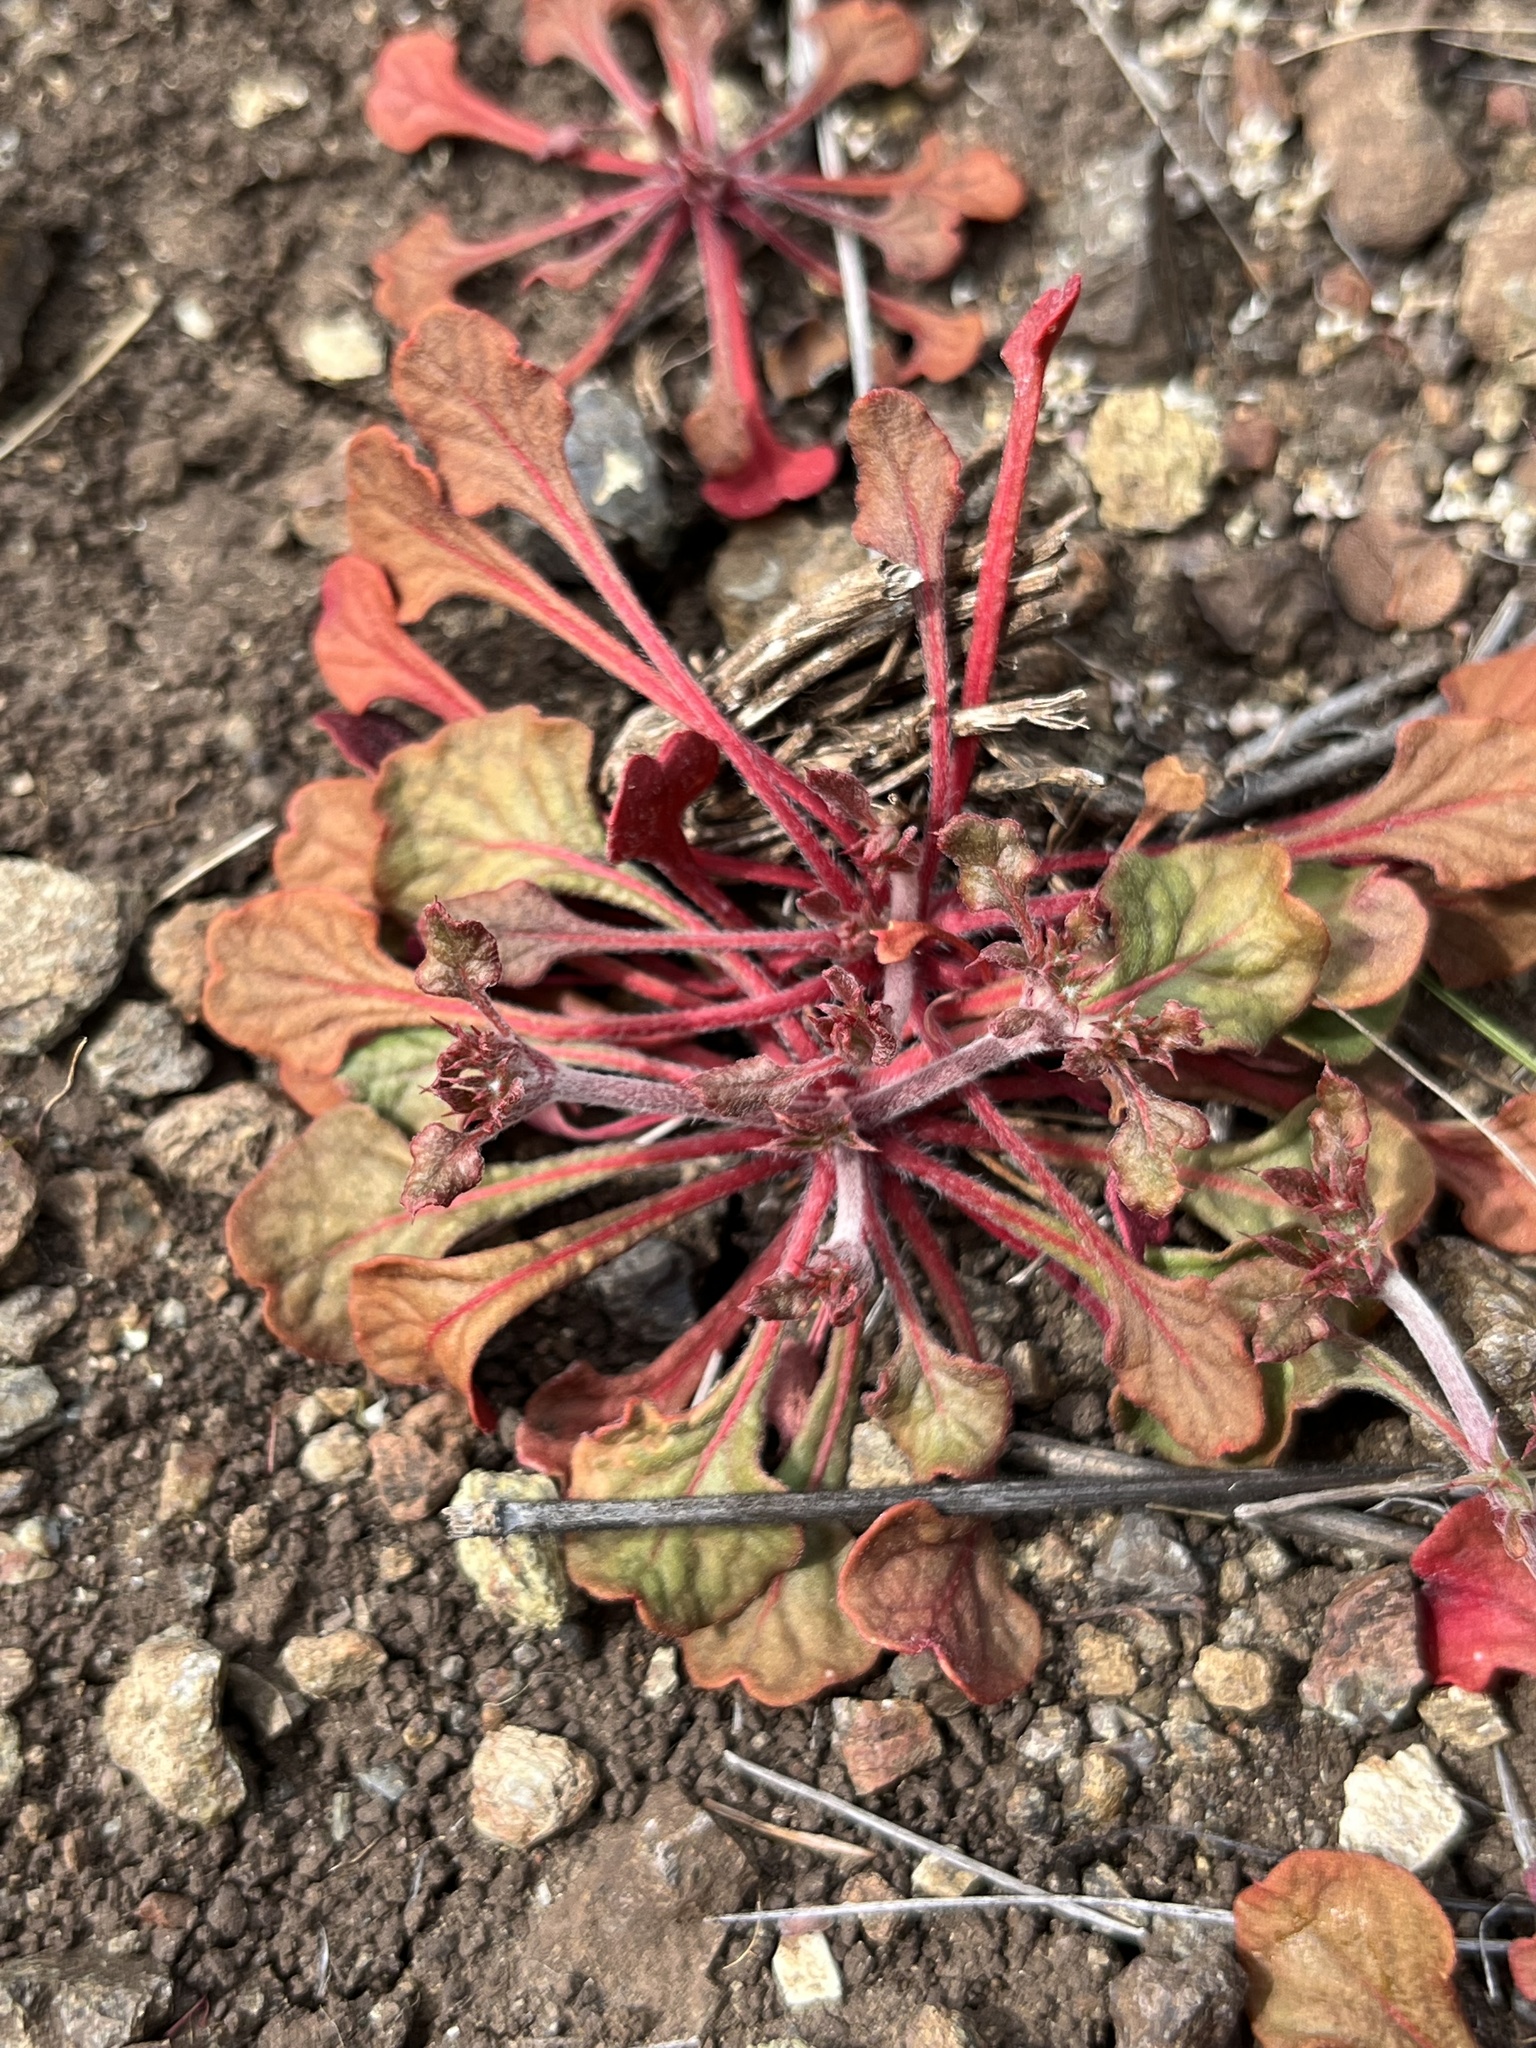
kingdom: Plantae
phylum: Tracheophyta
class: Magnoliopsida
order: Caryophyllales
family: Polygonaceae
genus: Chorizanthe
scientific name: Chorizanthe breweri
